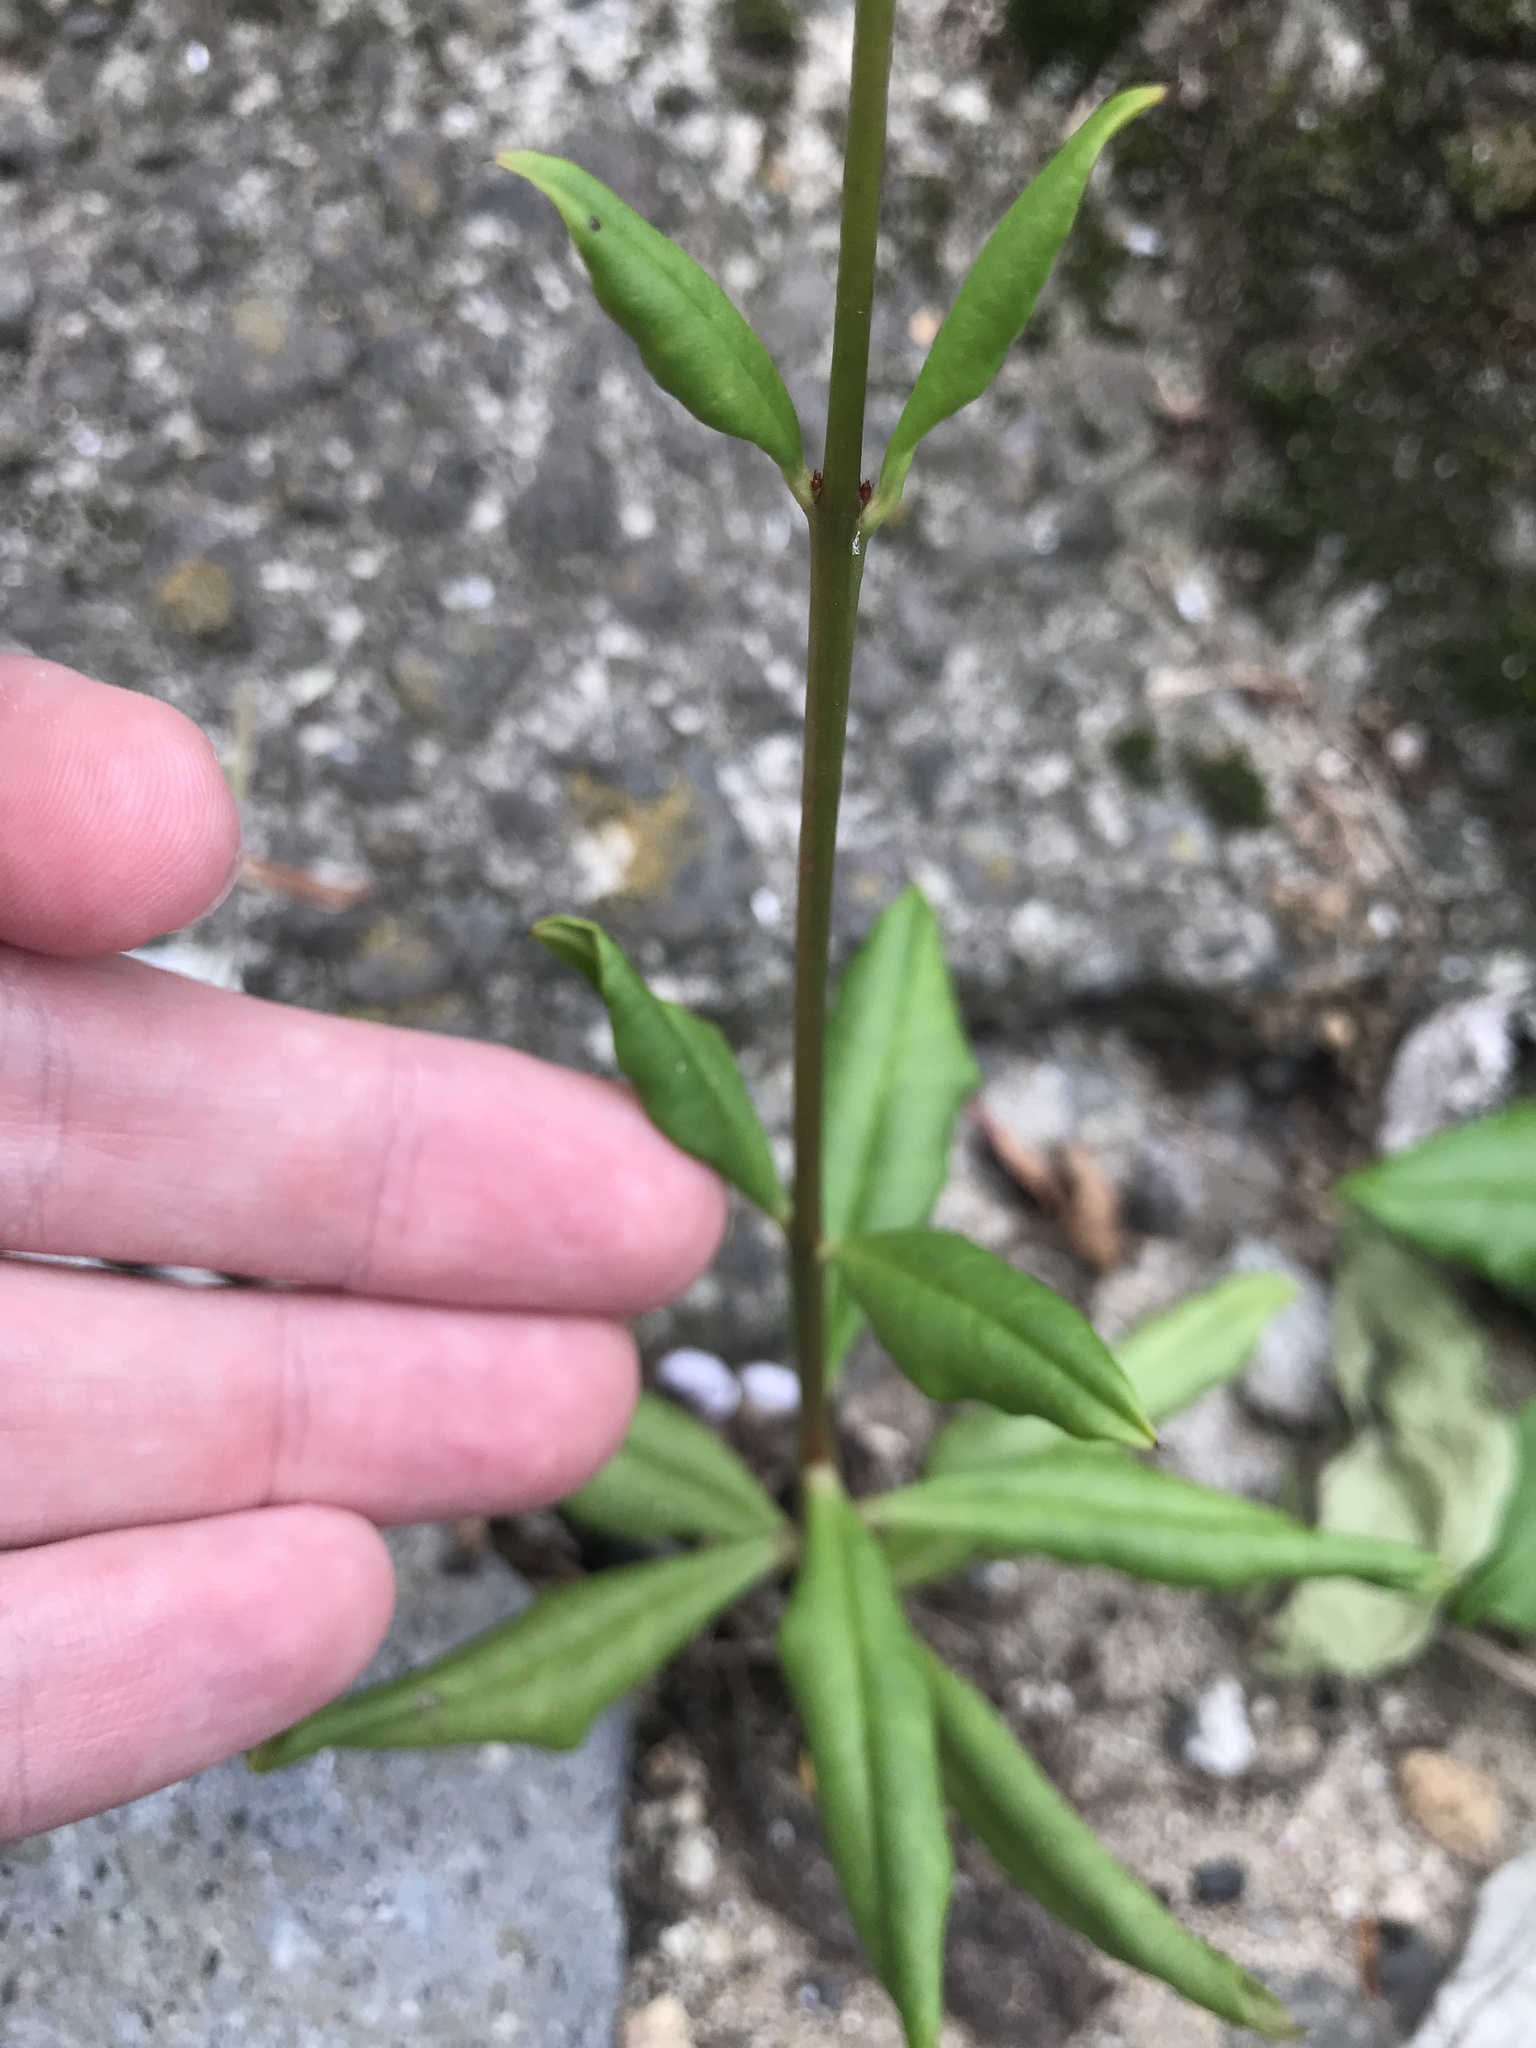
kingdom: Plantae
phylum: Tracheophyta
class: Magnoliopsida
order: Caryophyllales
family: Talinaceae
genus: Talinum
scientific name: Talinum paniculatum
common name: Jewels of opar
